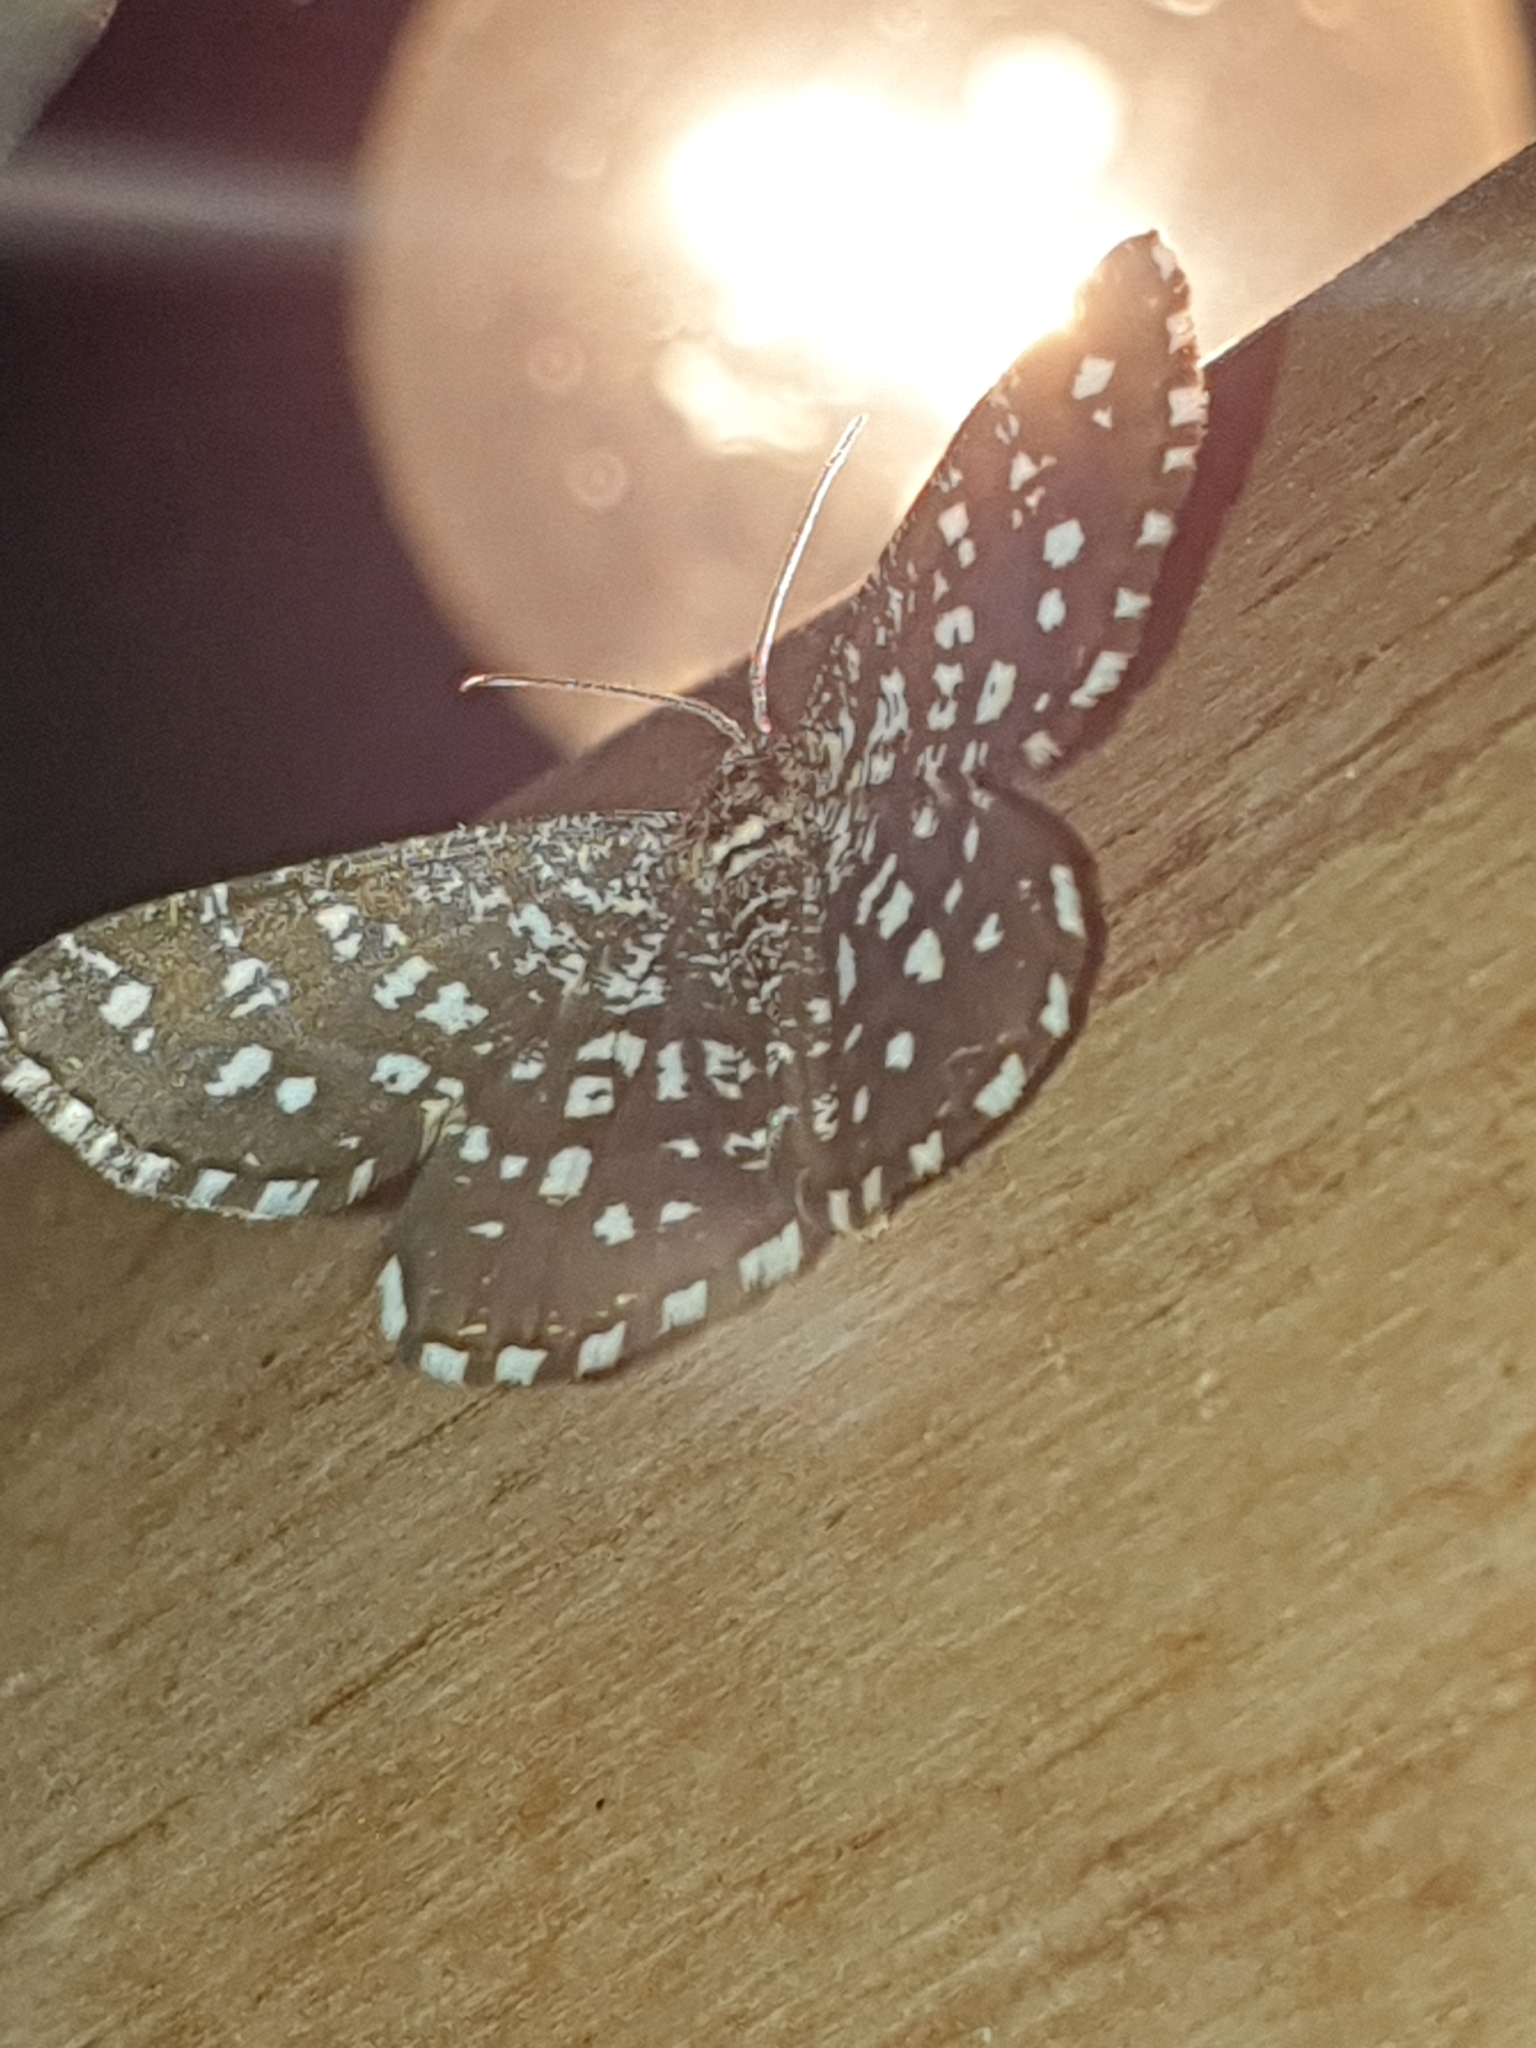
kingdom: Animalia
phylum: Arthropoda
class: Insecta
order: Lepidoptera
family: Geometridae
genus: Chiasmia
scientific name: Chiasmia clathrata
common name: Latticed heath
